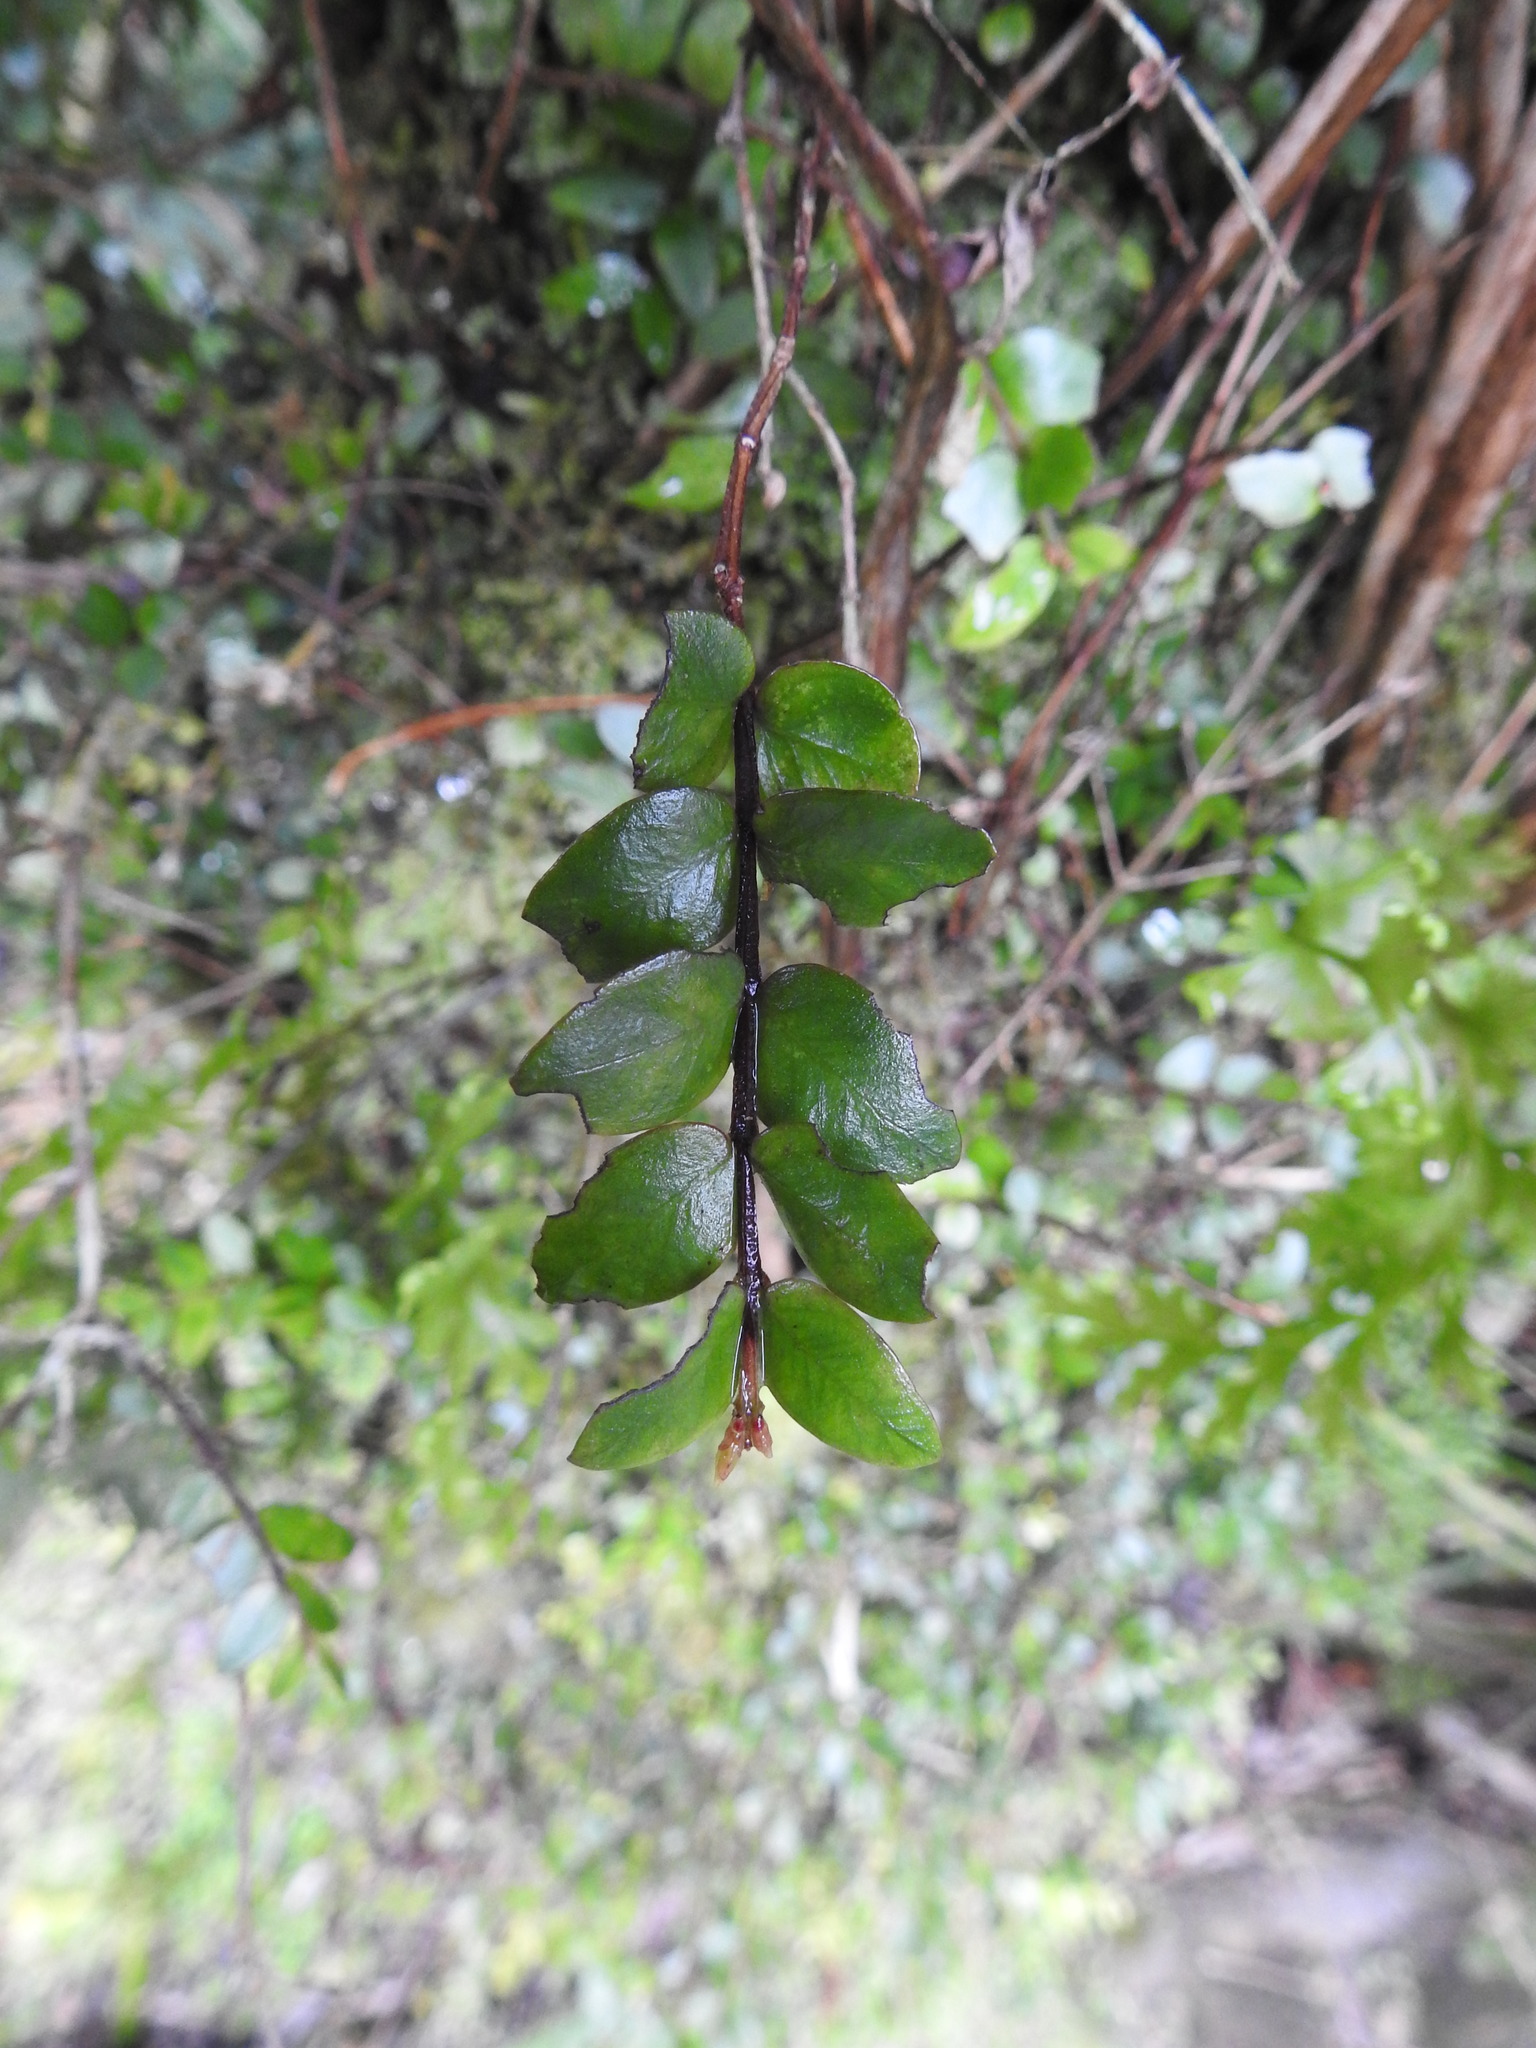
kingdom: Plantae
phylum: Tracheophyta
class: Magnoliopsida
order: Myrtales
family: Myrtaceae
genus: Metrosideros
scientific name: Metrosideros fulgens
